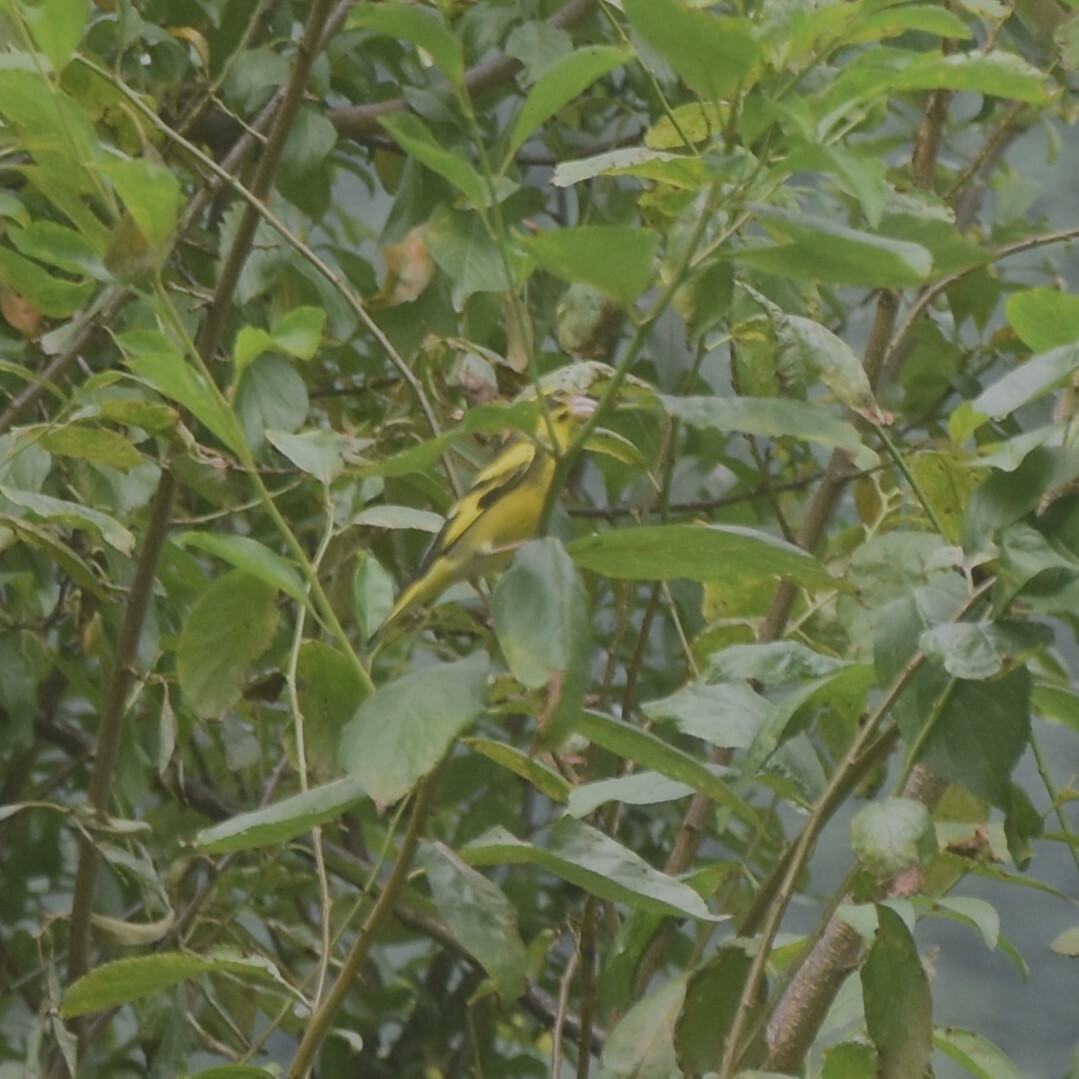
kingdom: Animalia
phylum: Chordata
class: Aves
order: Passeriformes
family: Fringillidae
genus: Chloris
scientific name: Chloris spinoides
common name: Yellow-breasted greenfinch
